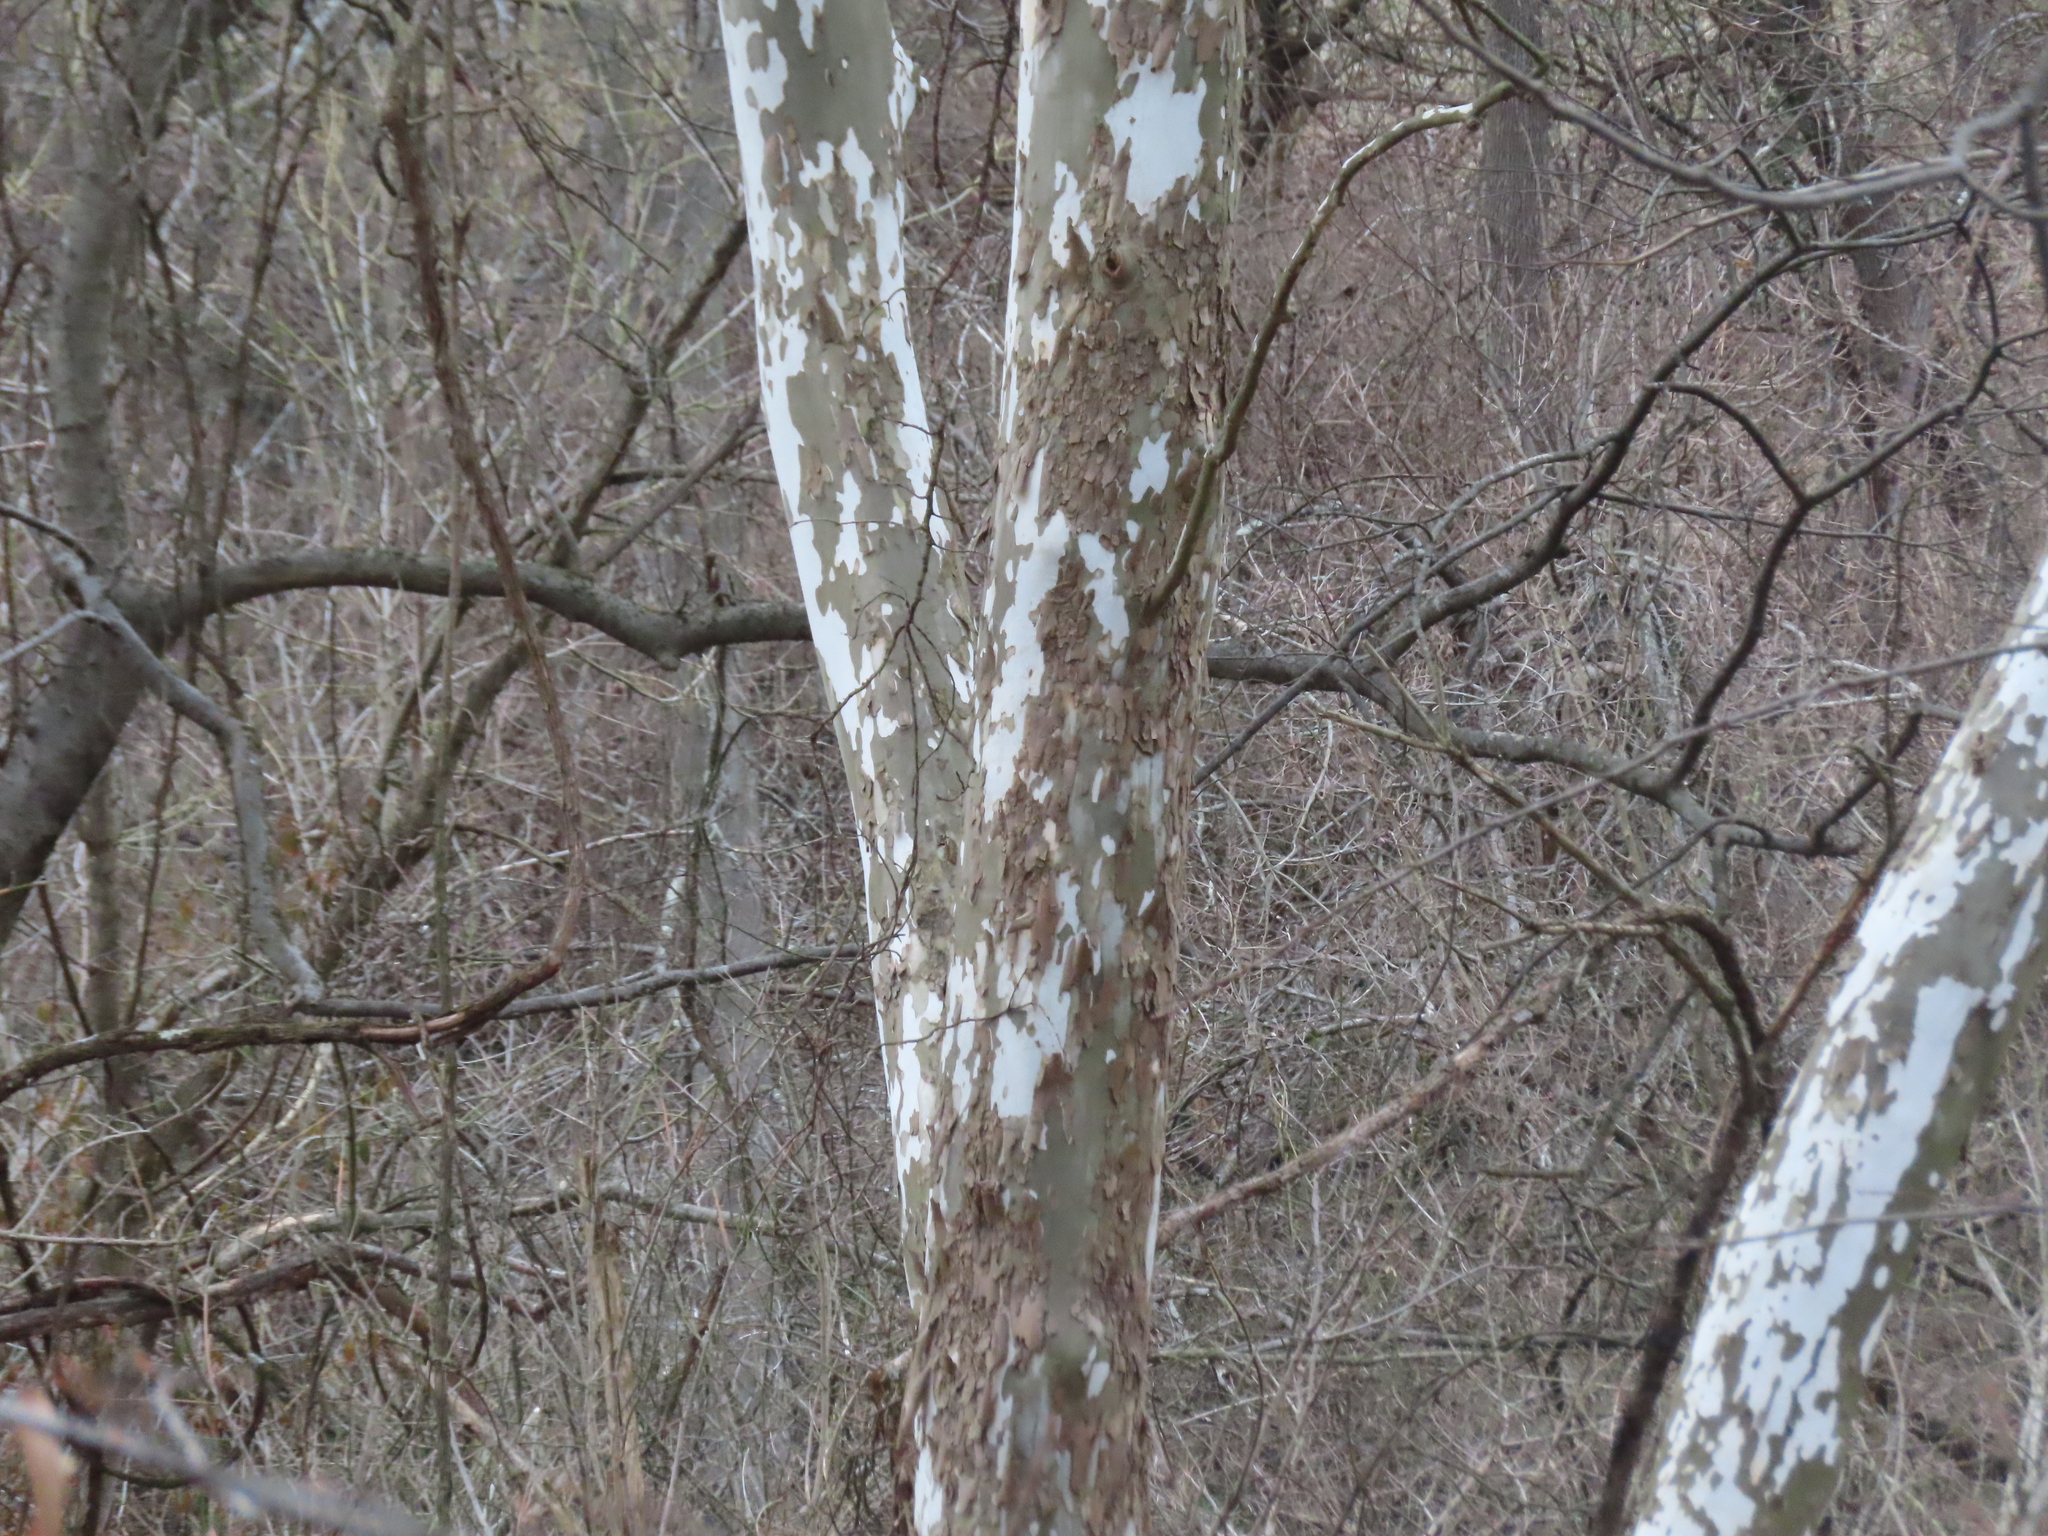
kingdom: Plantae
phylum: Tracheophyta
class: Magnoliopsida
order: Proteales
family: Platanaceae
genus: Platanus
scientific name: Platanus occidentalis
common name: American sycamore
